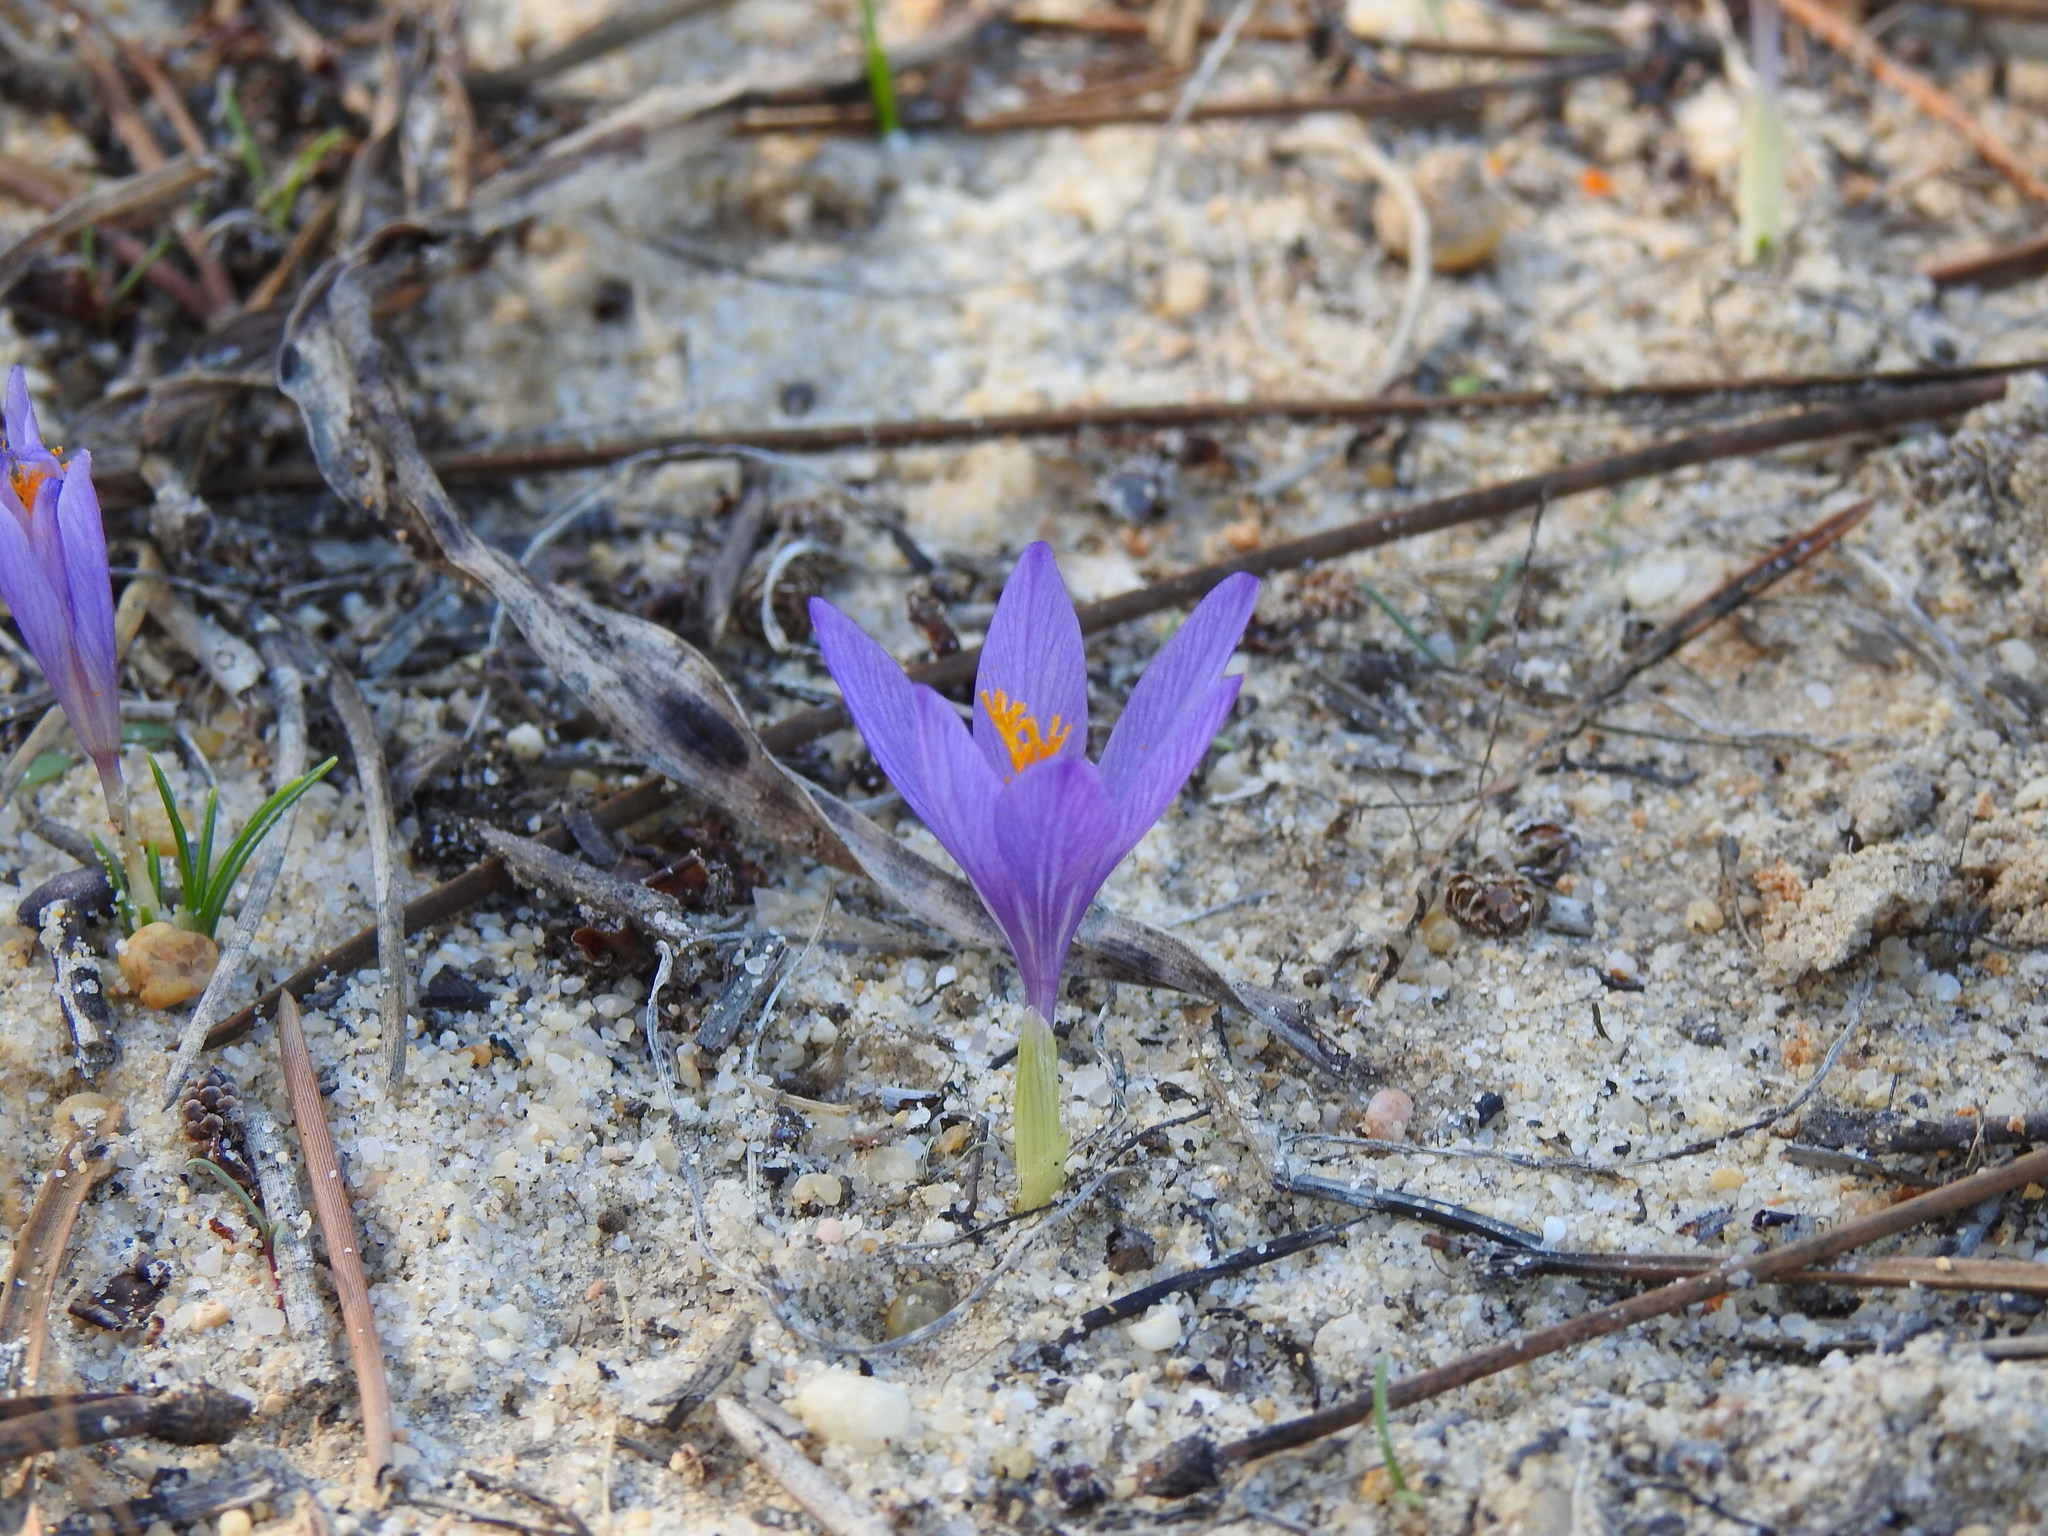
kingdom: Plantae
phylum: Tracheophyta
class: Liliopsida
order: Asparagales
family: Iridaceae
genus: Crocus
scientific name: Crocus serotinus
